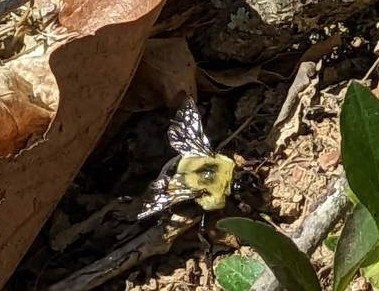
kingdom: Animalia
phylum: Arthropoda
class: Insecta
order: Hymenoptera
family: Apidae
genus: Bombus
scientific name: Bombus impatiens
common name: Common eastern bumble bee
